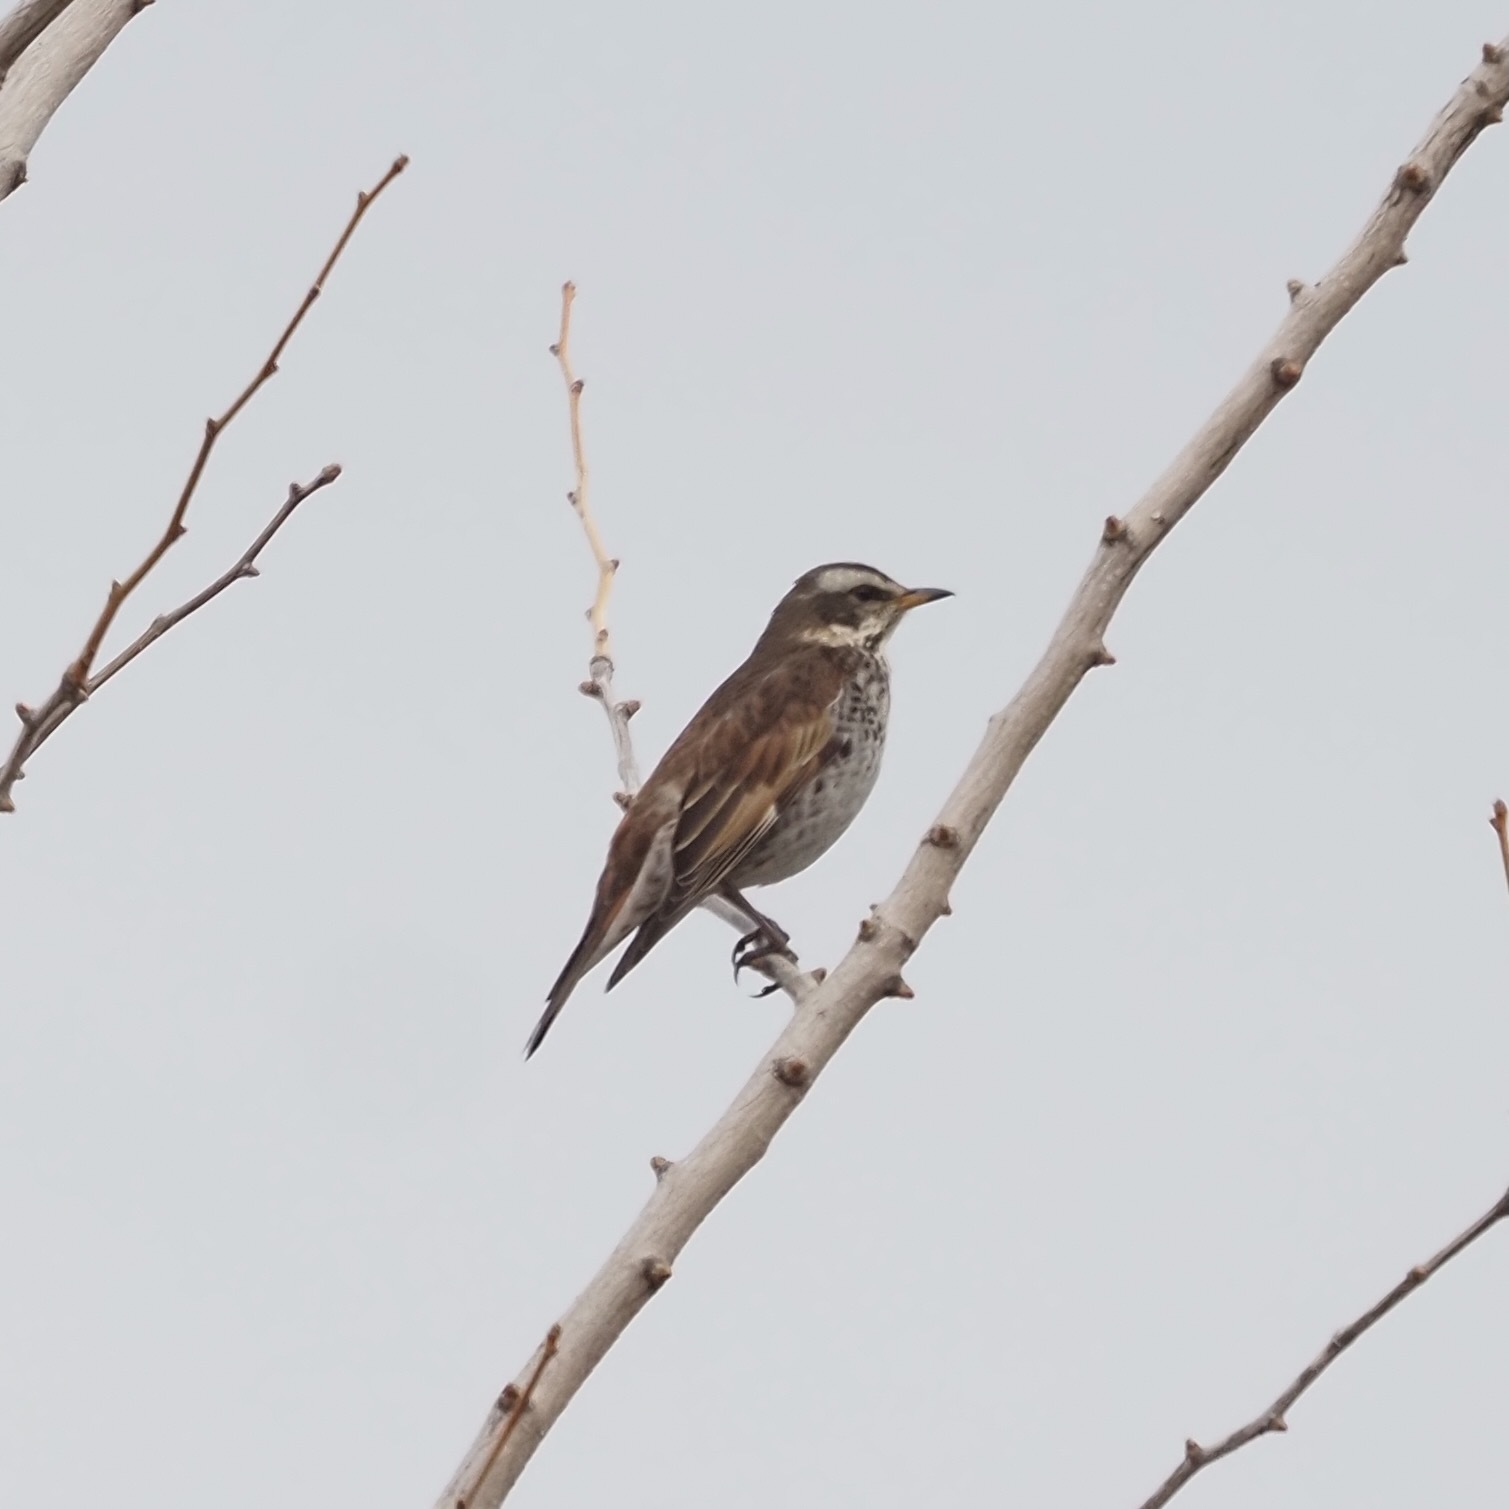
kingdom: Animalia
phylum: Chordata
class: Aves
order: Passeriformes
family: Turdidae
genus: Turdus
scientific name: Turdus eunomus
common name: Dusky thrush
